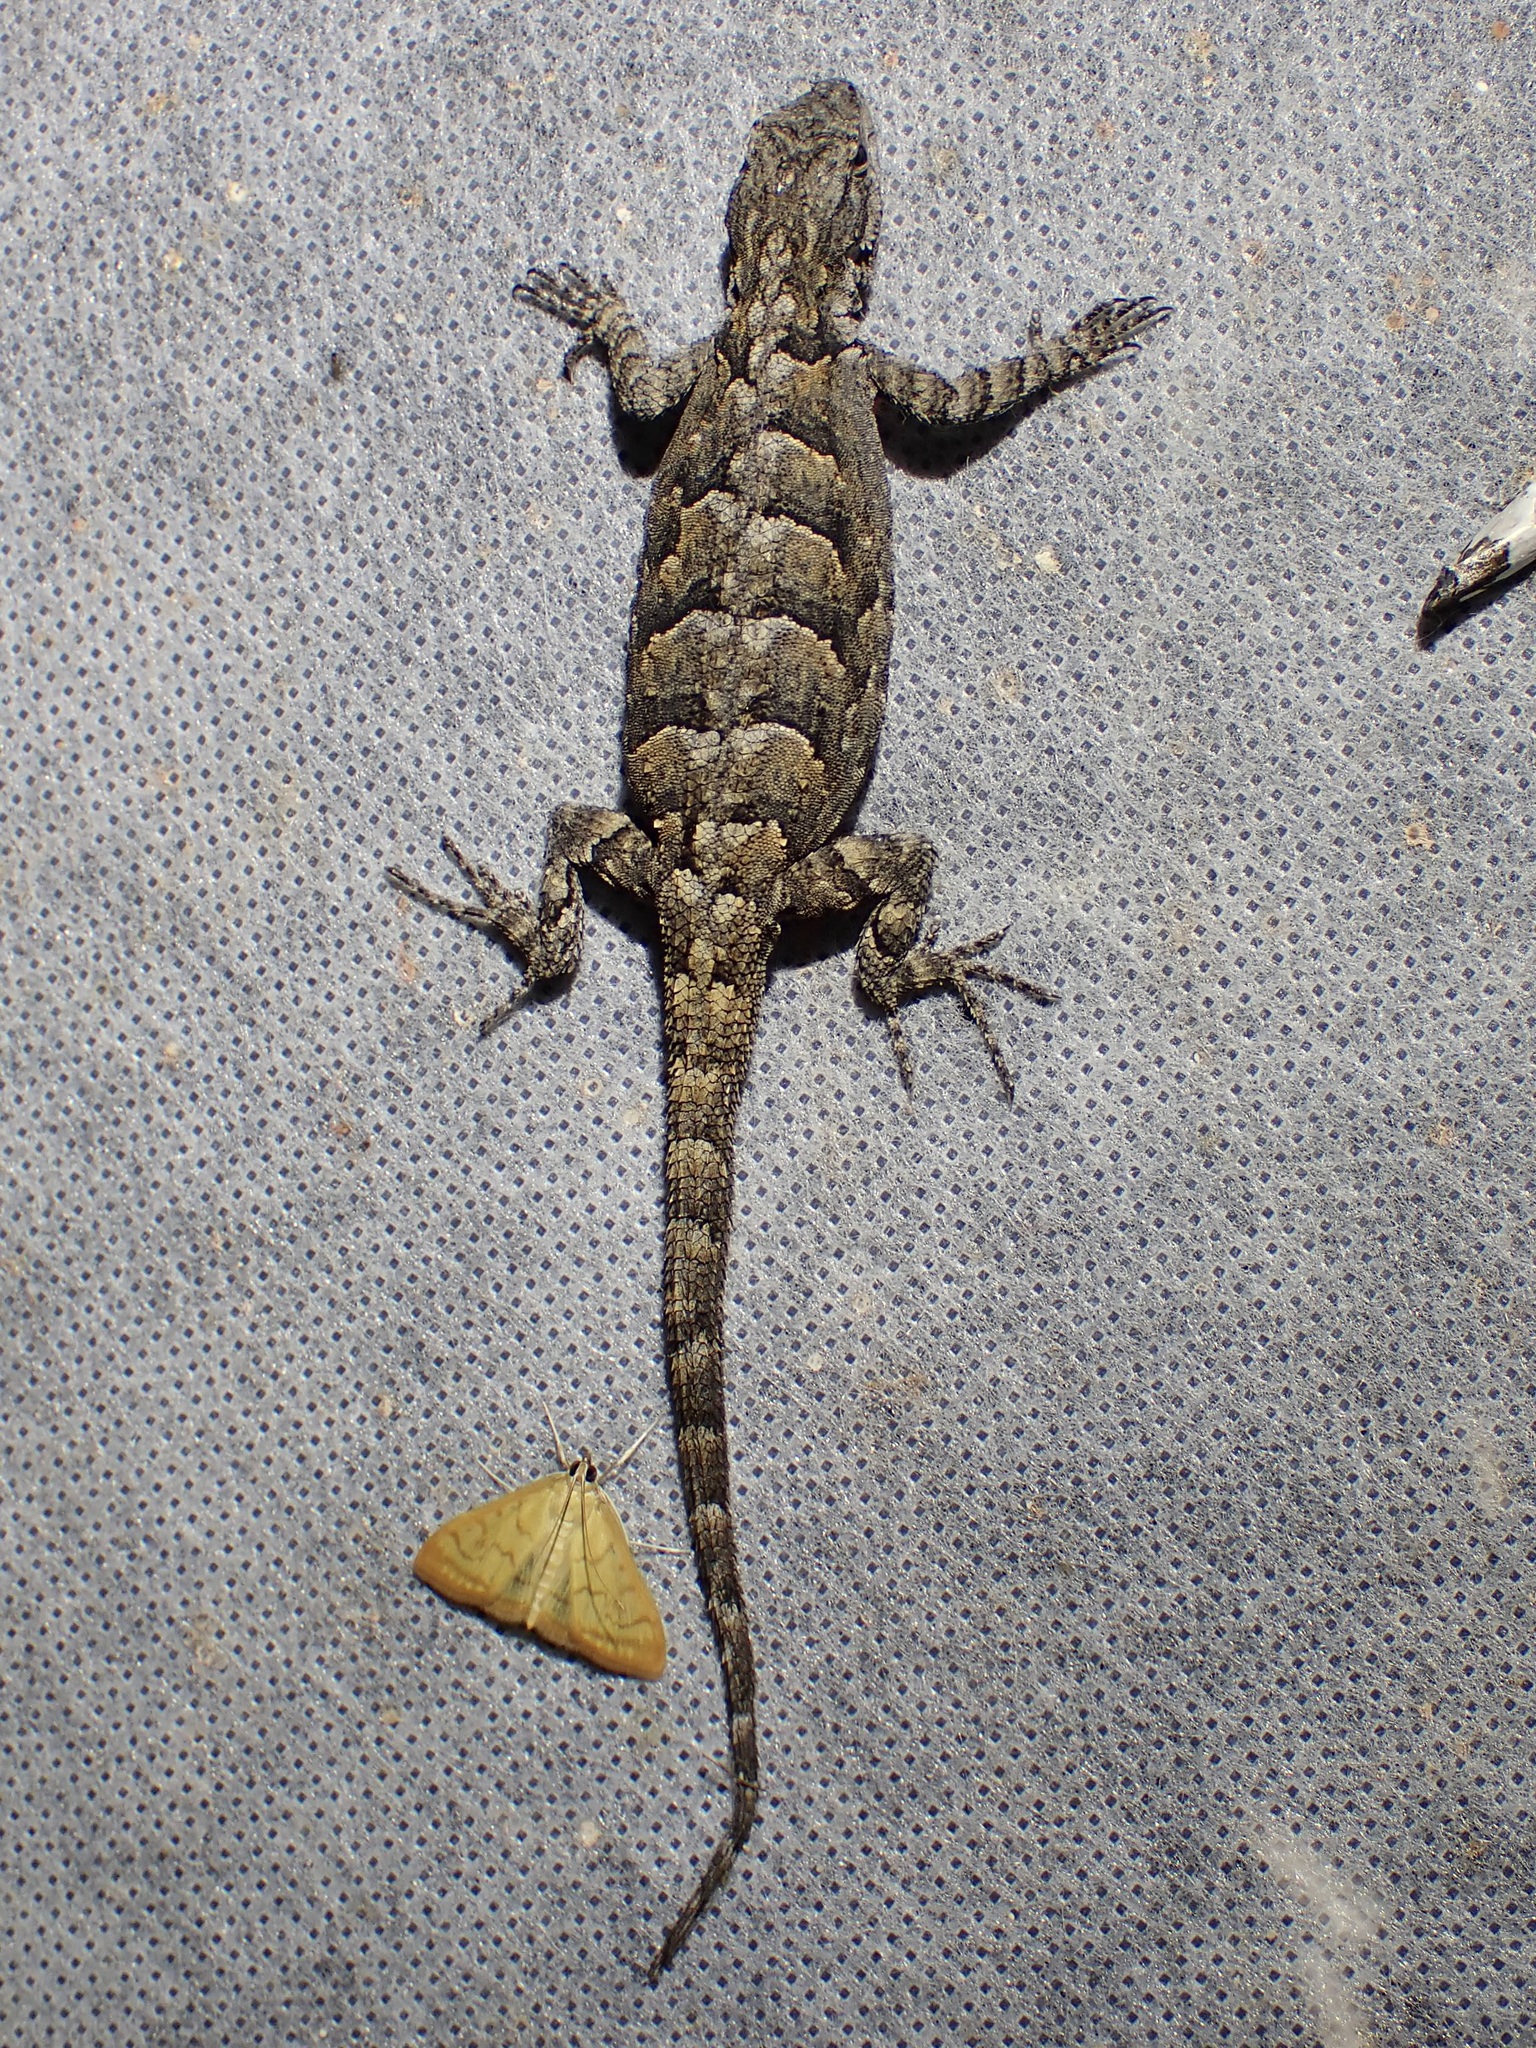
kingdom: Animalia
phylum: Chordata
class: Squamata
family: Phrynosomatidae
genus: Urosaurus
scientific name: Urosaurus ornatus
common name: Ornate tree lizard
